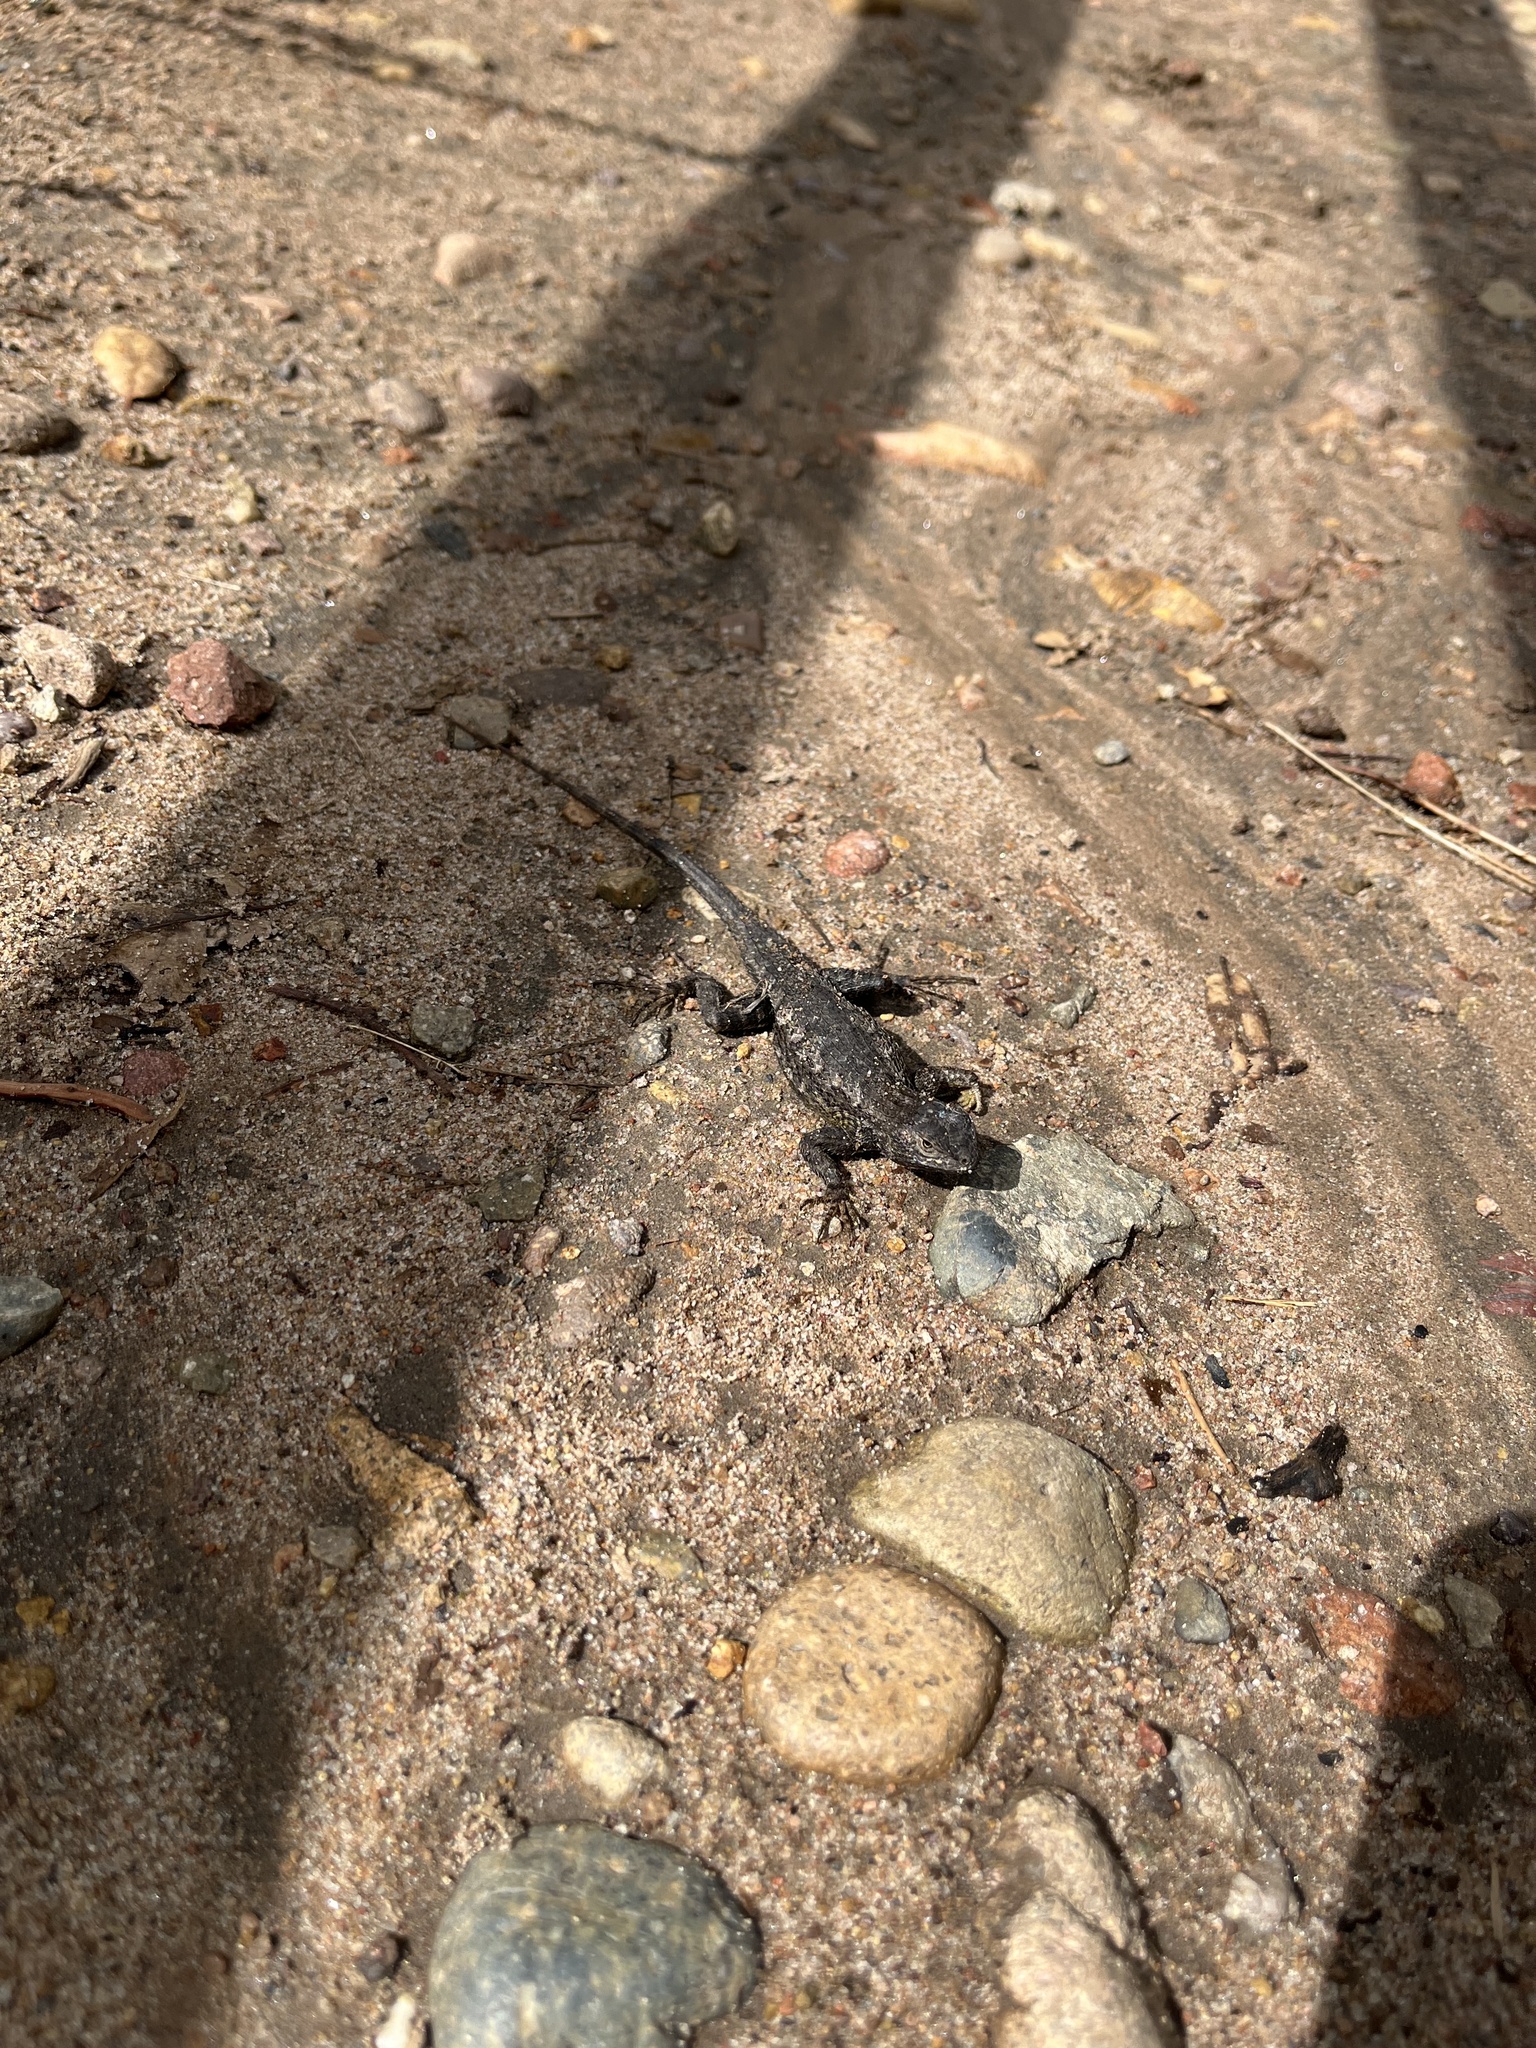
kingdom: Animalia
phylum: Chordata
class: Squamata
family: Phrynosomatidae
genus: Sceloporus
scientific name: Sceloporus occidentalis
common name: Western fence lizard
